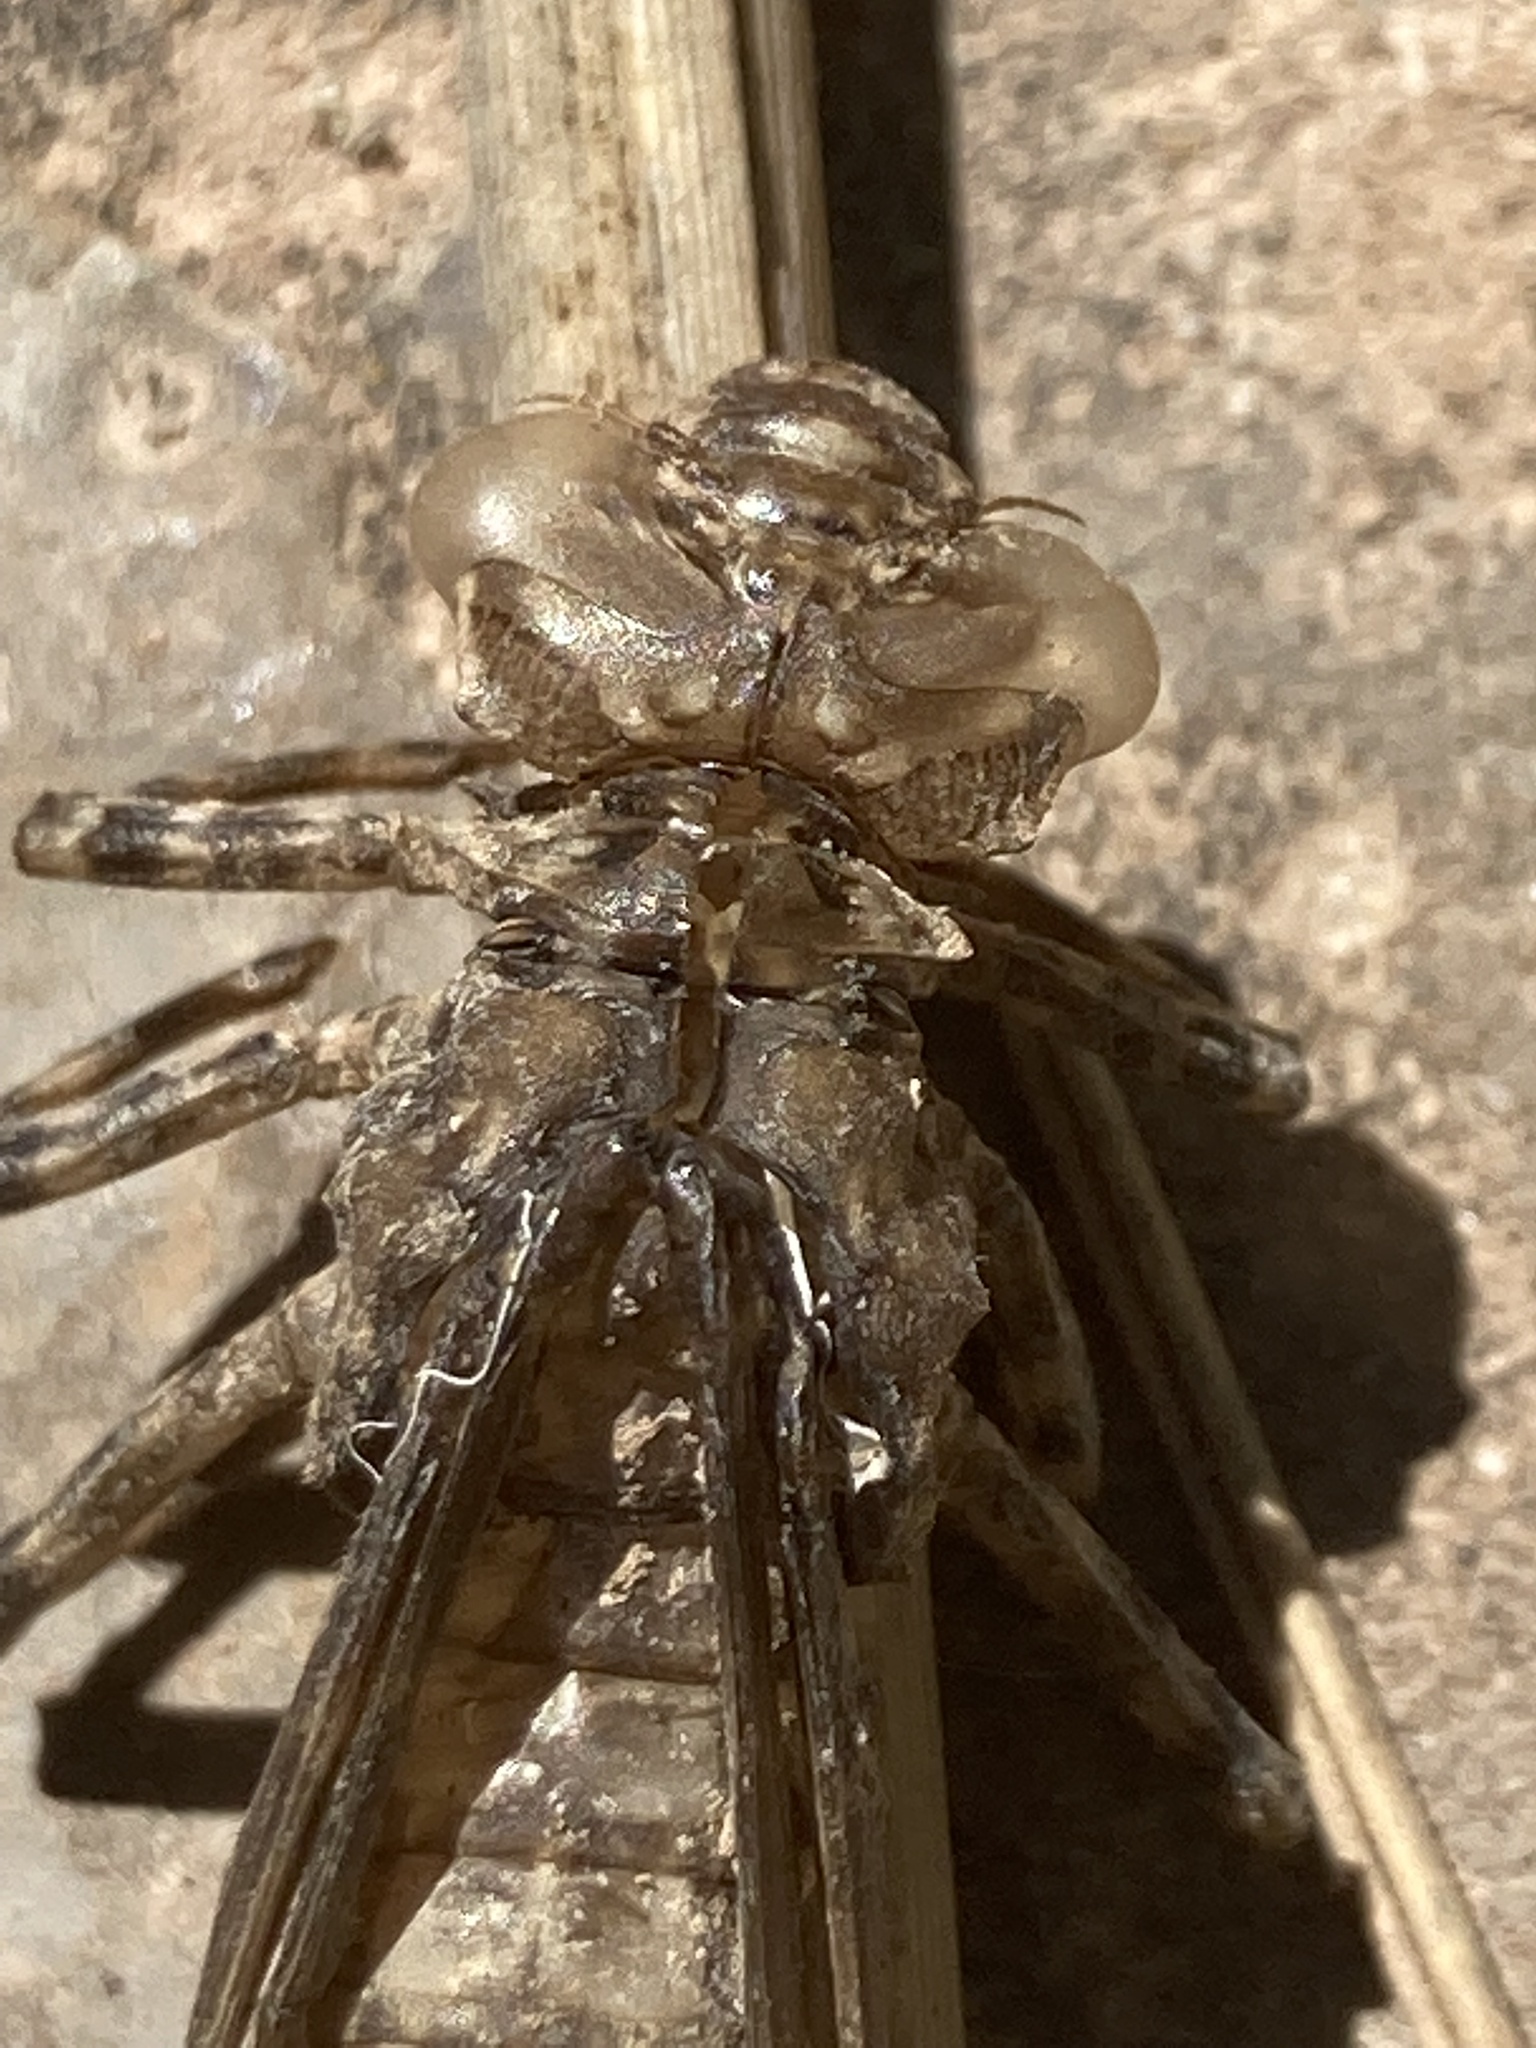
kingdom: Animalia
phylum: Arthropoda
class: Insecta
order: Odonata
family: Aeshnidae
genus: Boyeria
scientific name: Boyeria irene
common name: Western spectre
